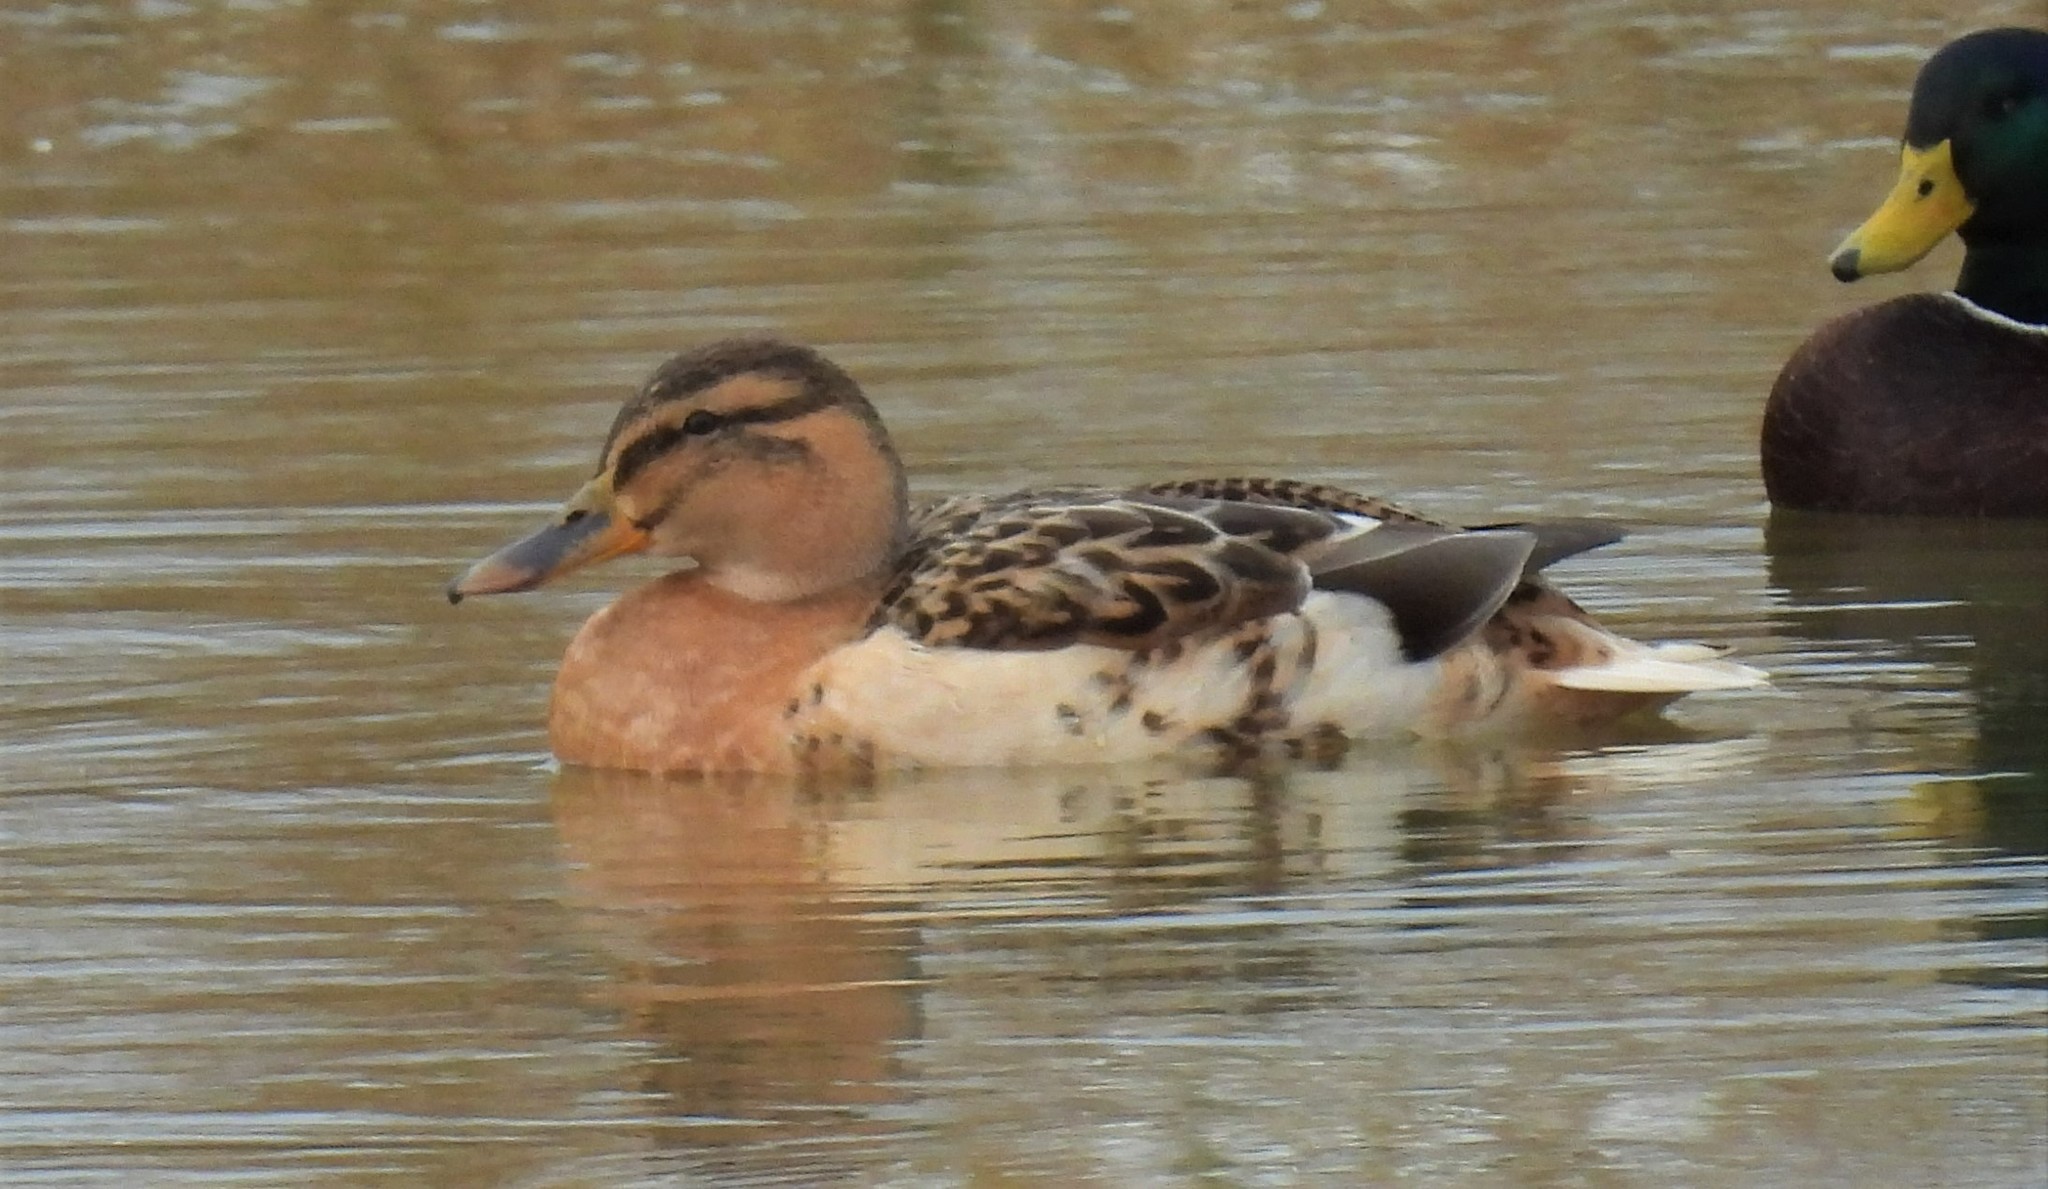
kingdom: Animalia
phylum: Chordata
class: Aves
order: Anseriformes
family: Anatidae
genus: Anas
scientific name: Anas platyrhynchos
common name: Mallard
